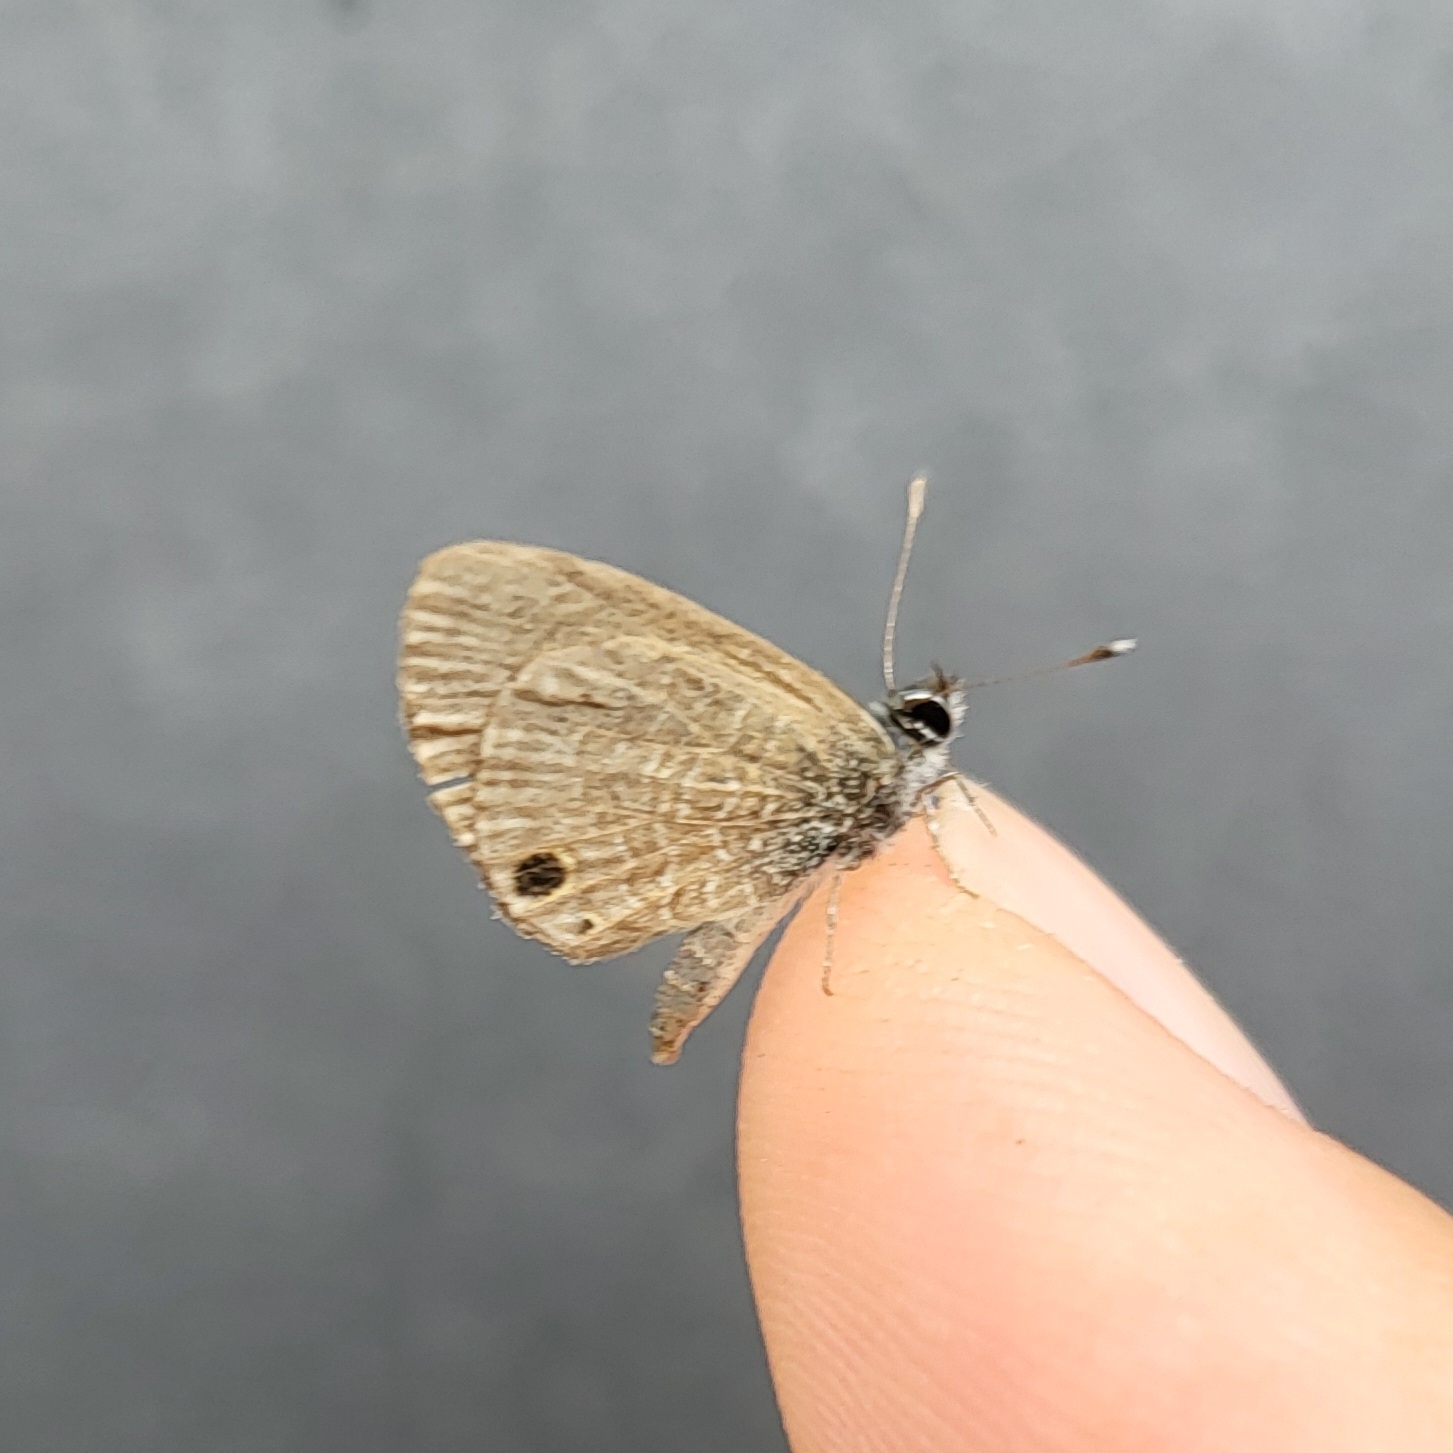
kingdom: Animalia
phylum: Arthropoda
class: Insecta
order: Lepidoptera
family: Lycaenidae
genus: Prosotas
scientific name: Prosotas dubiosa
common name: Tailless lineblue
